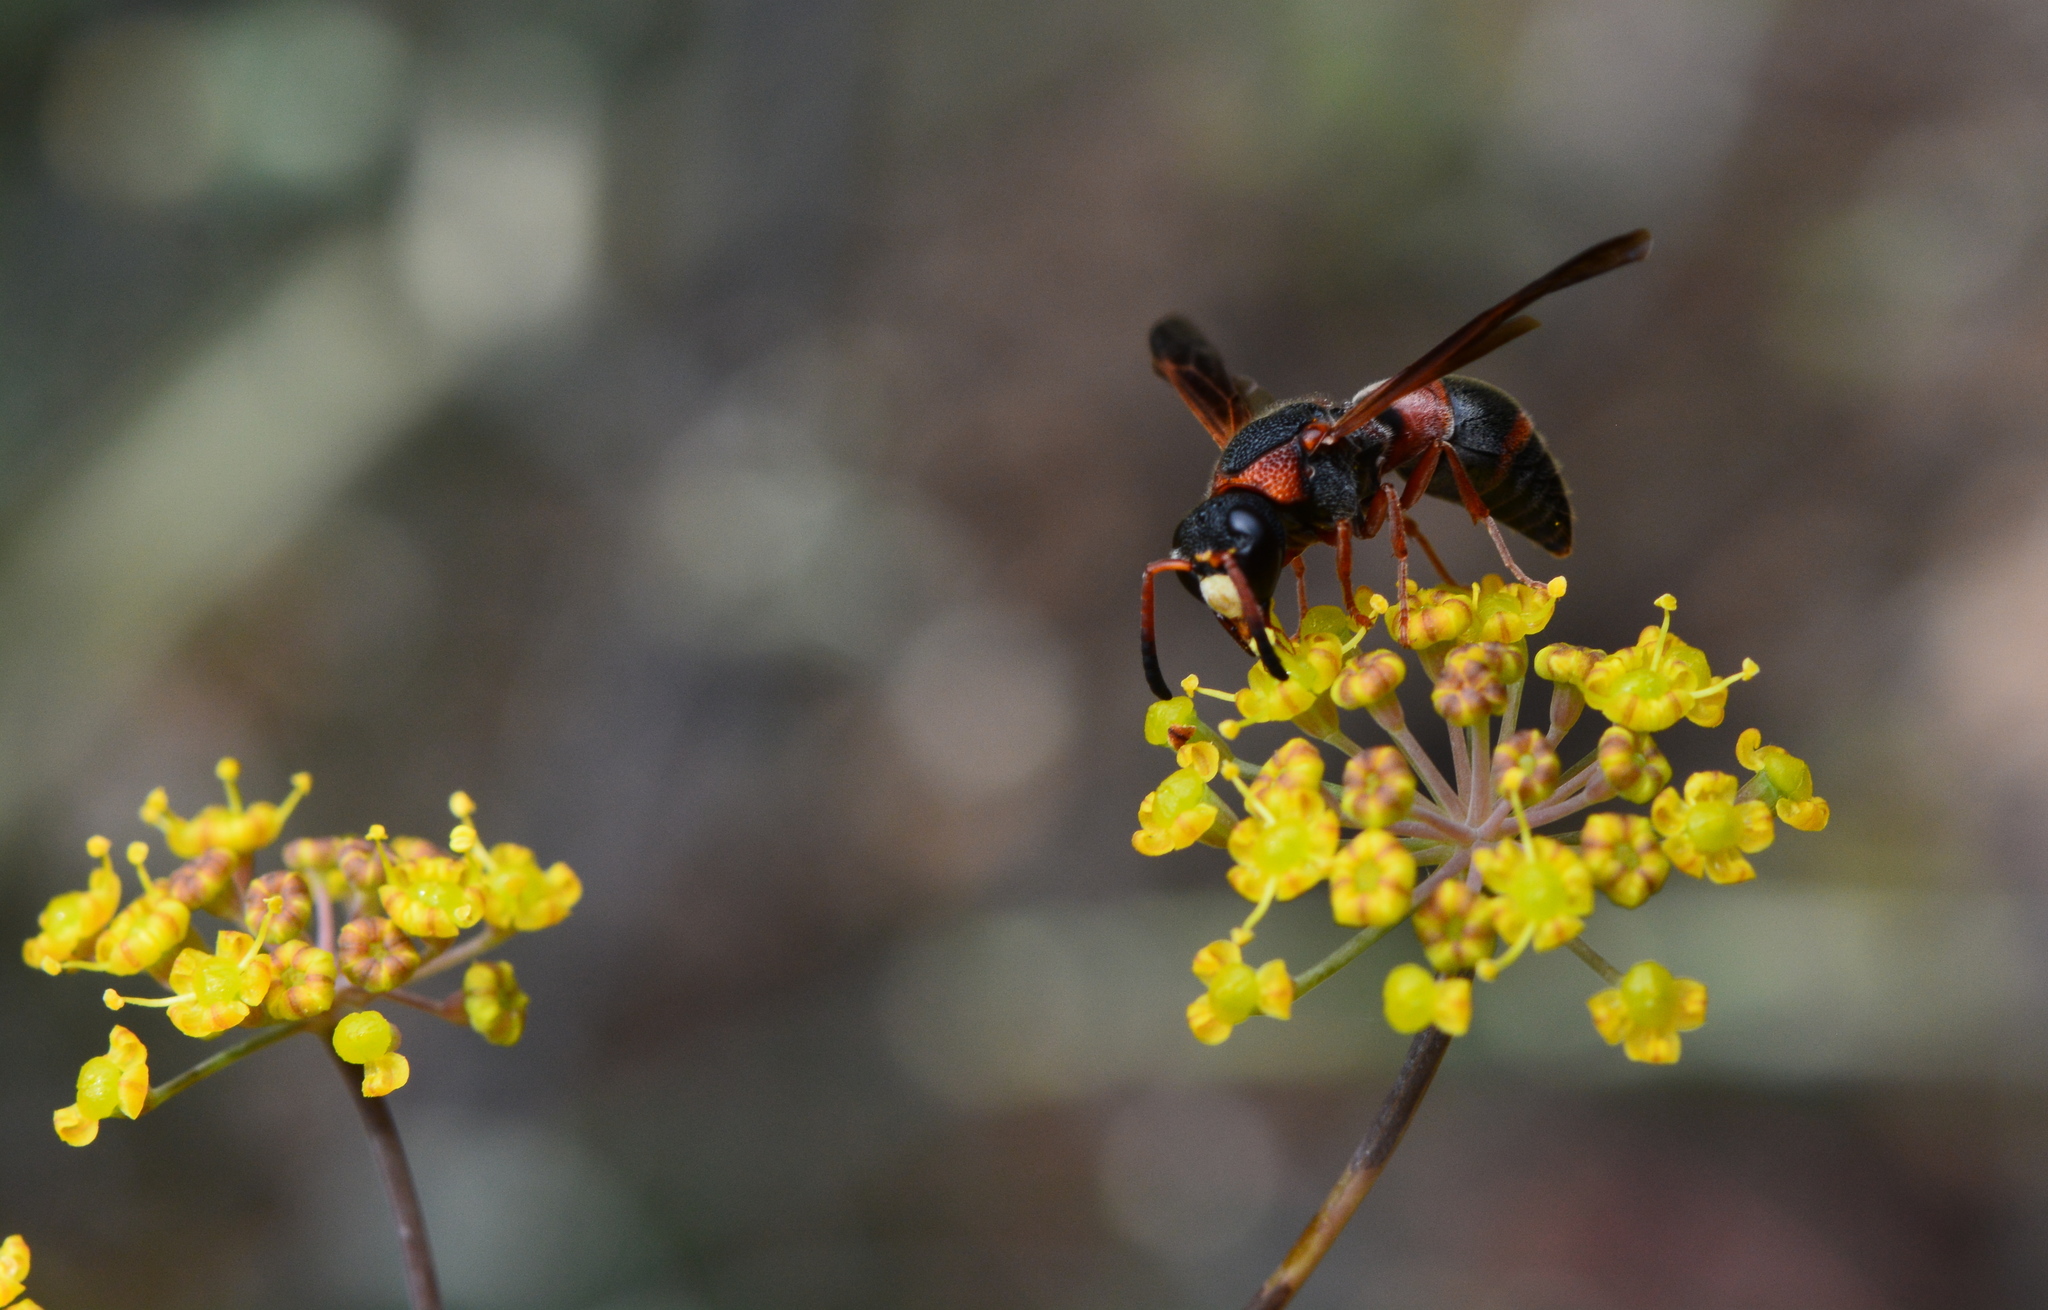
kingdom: Animalia
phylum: Arthropoda
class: Insecta
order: Hymenoptera
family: Eumenidae
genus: Pachodynerus
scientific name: Pachodynerus erynnis
